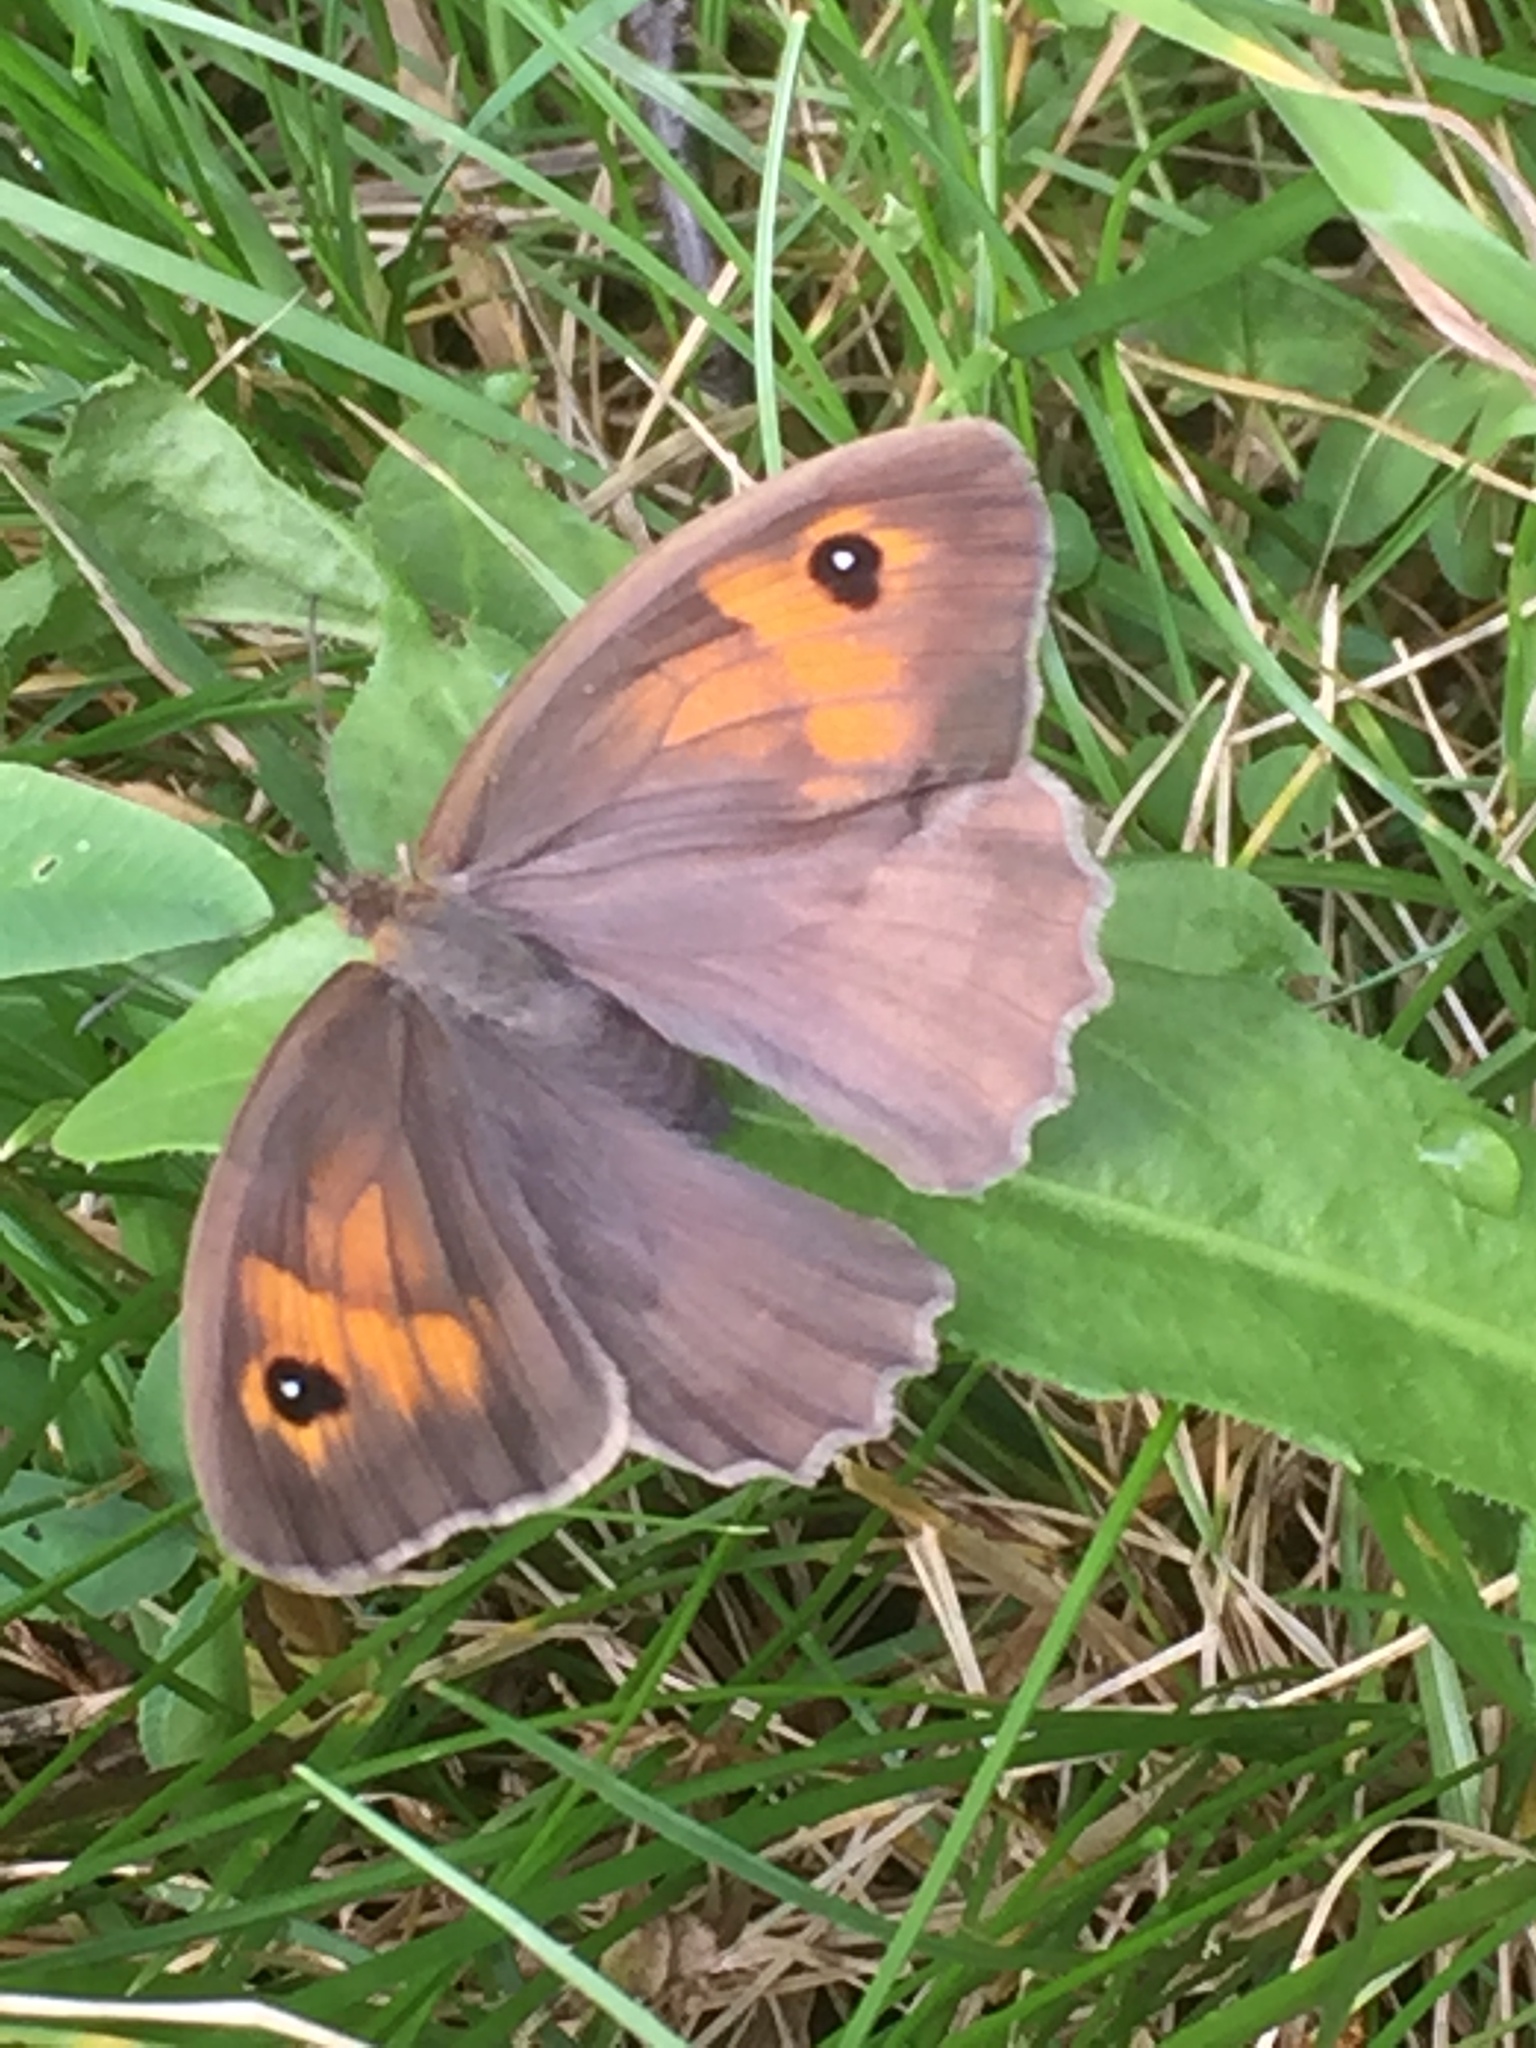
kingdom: Animalia
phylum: Arthropoda
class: Insecta
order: Lepidoptera
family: Nymphalidae
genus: Maniola
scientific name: Maniola jurtina
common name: Meadow brown
